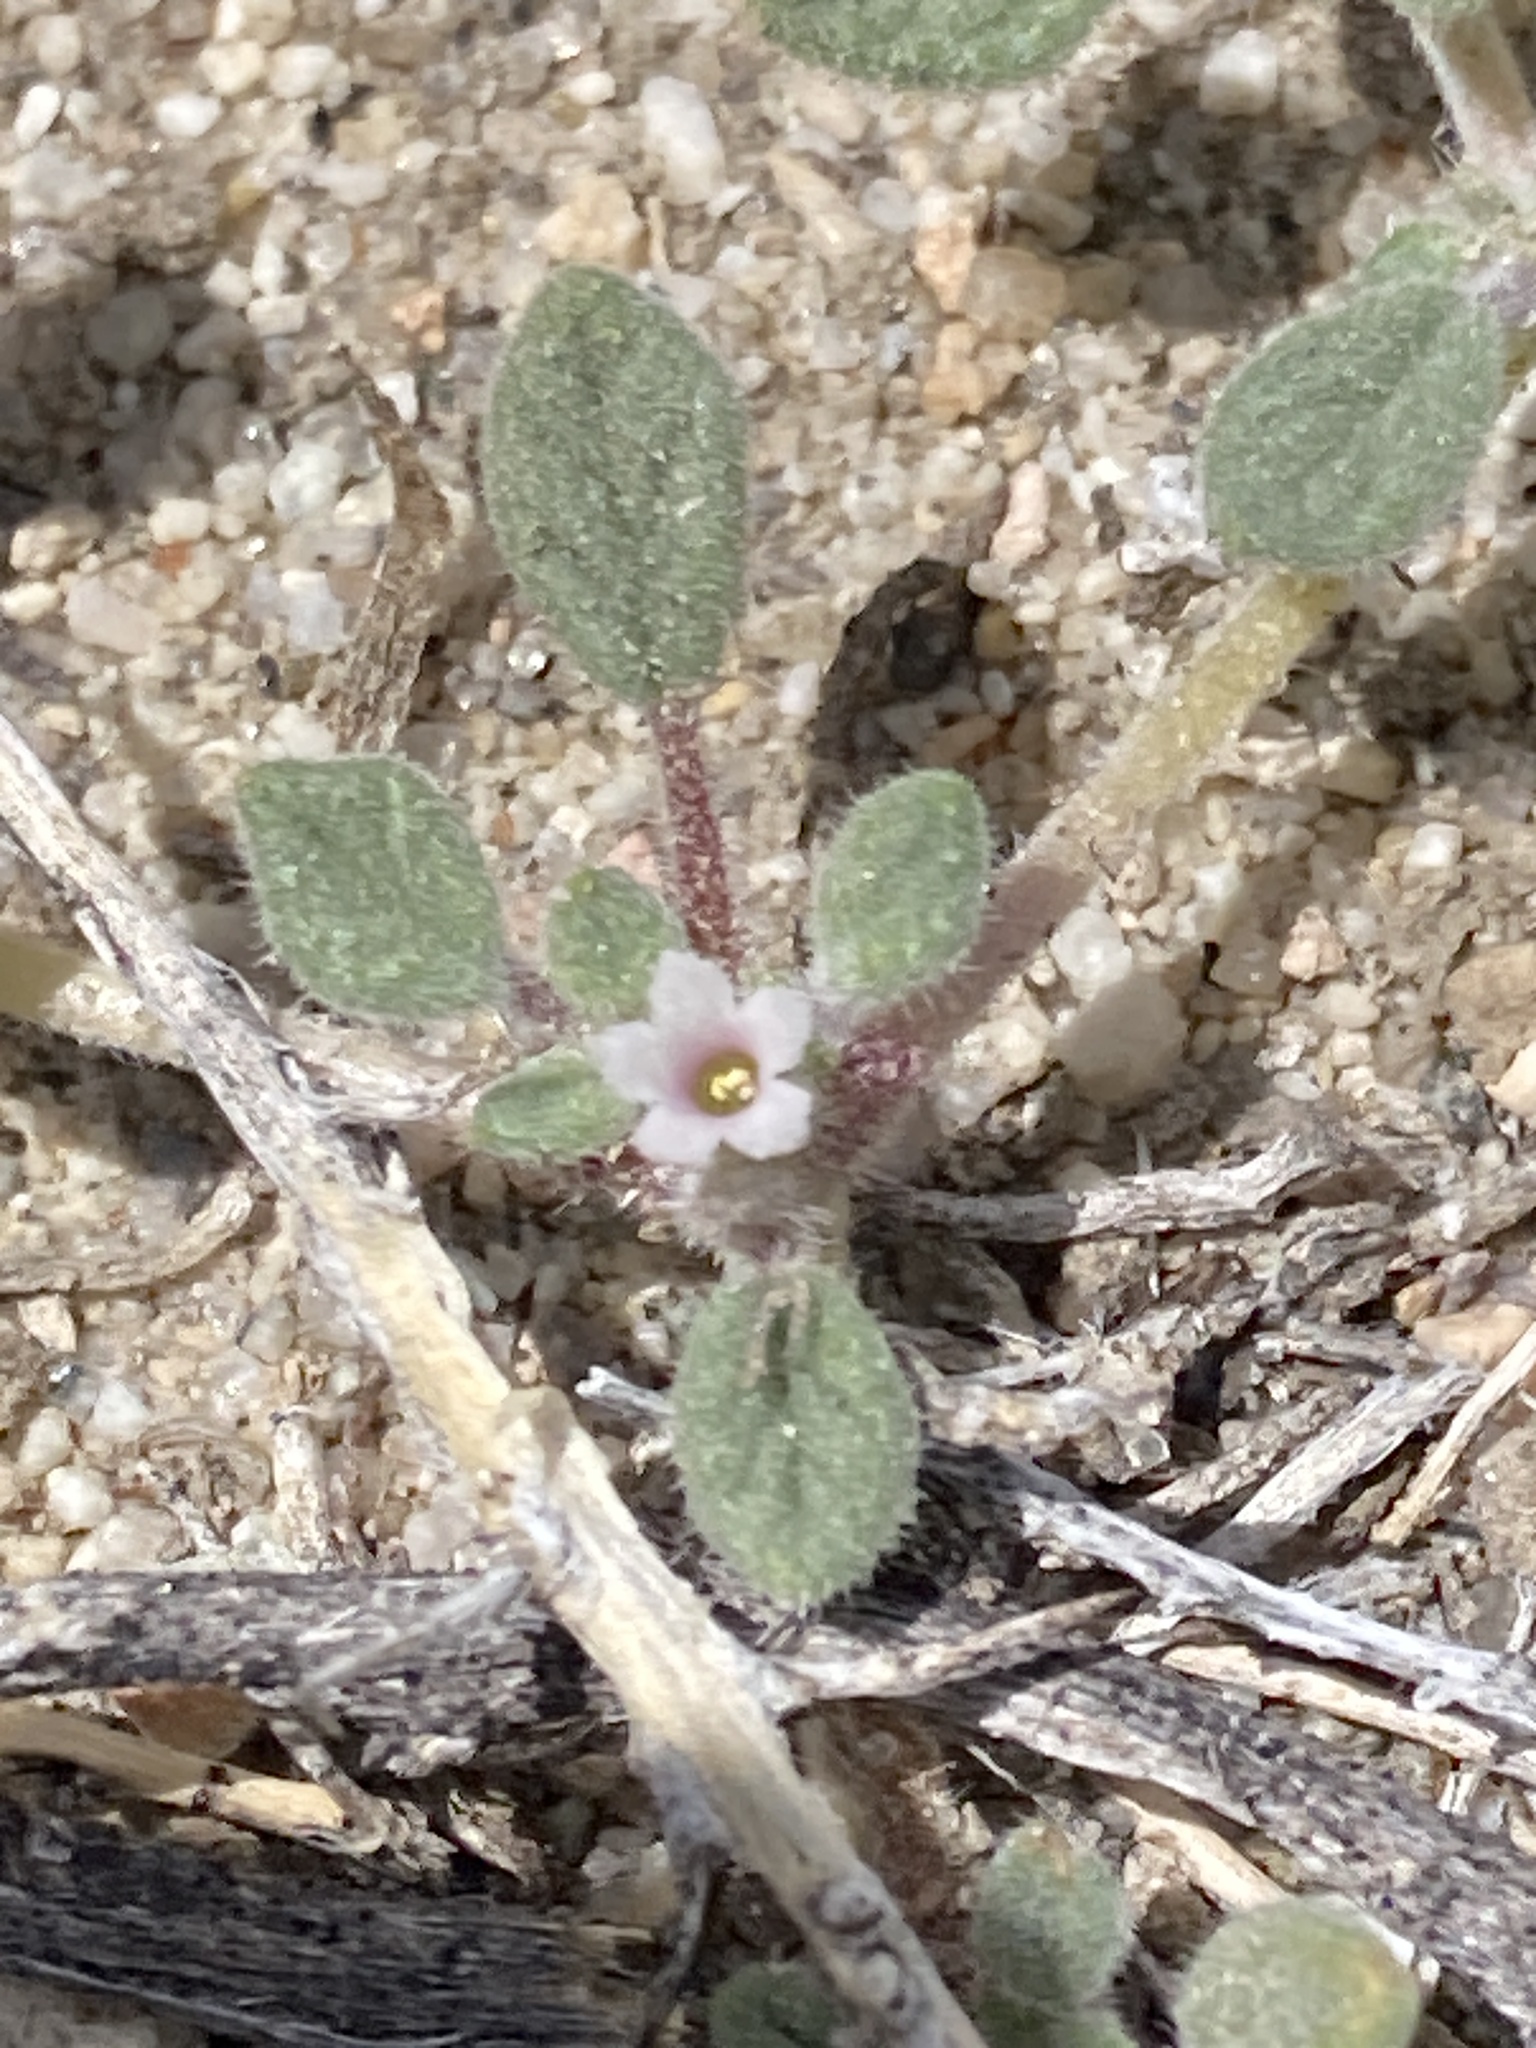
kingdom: Plantae
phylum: Tracheophyta
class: Magnoliopsida
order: Boraginales
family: Ehretiaceae
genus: Tiquilia
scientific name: Tiquilia nuttallii
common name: Rosette tiquilia
